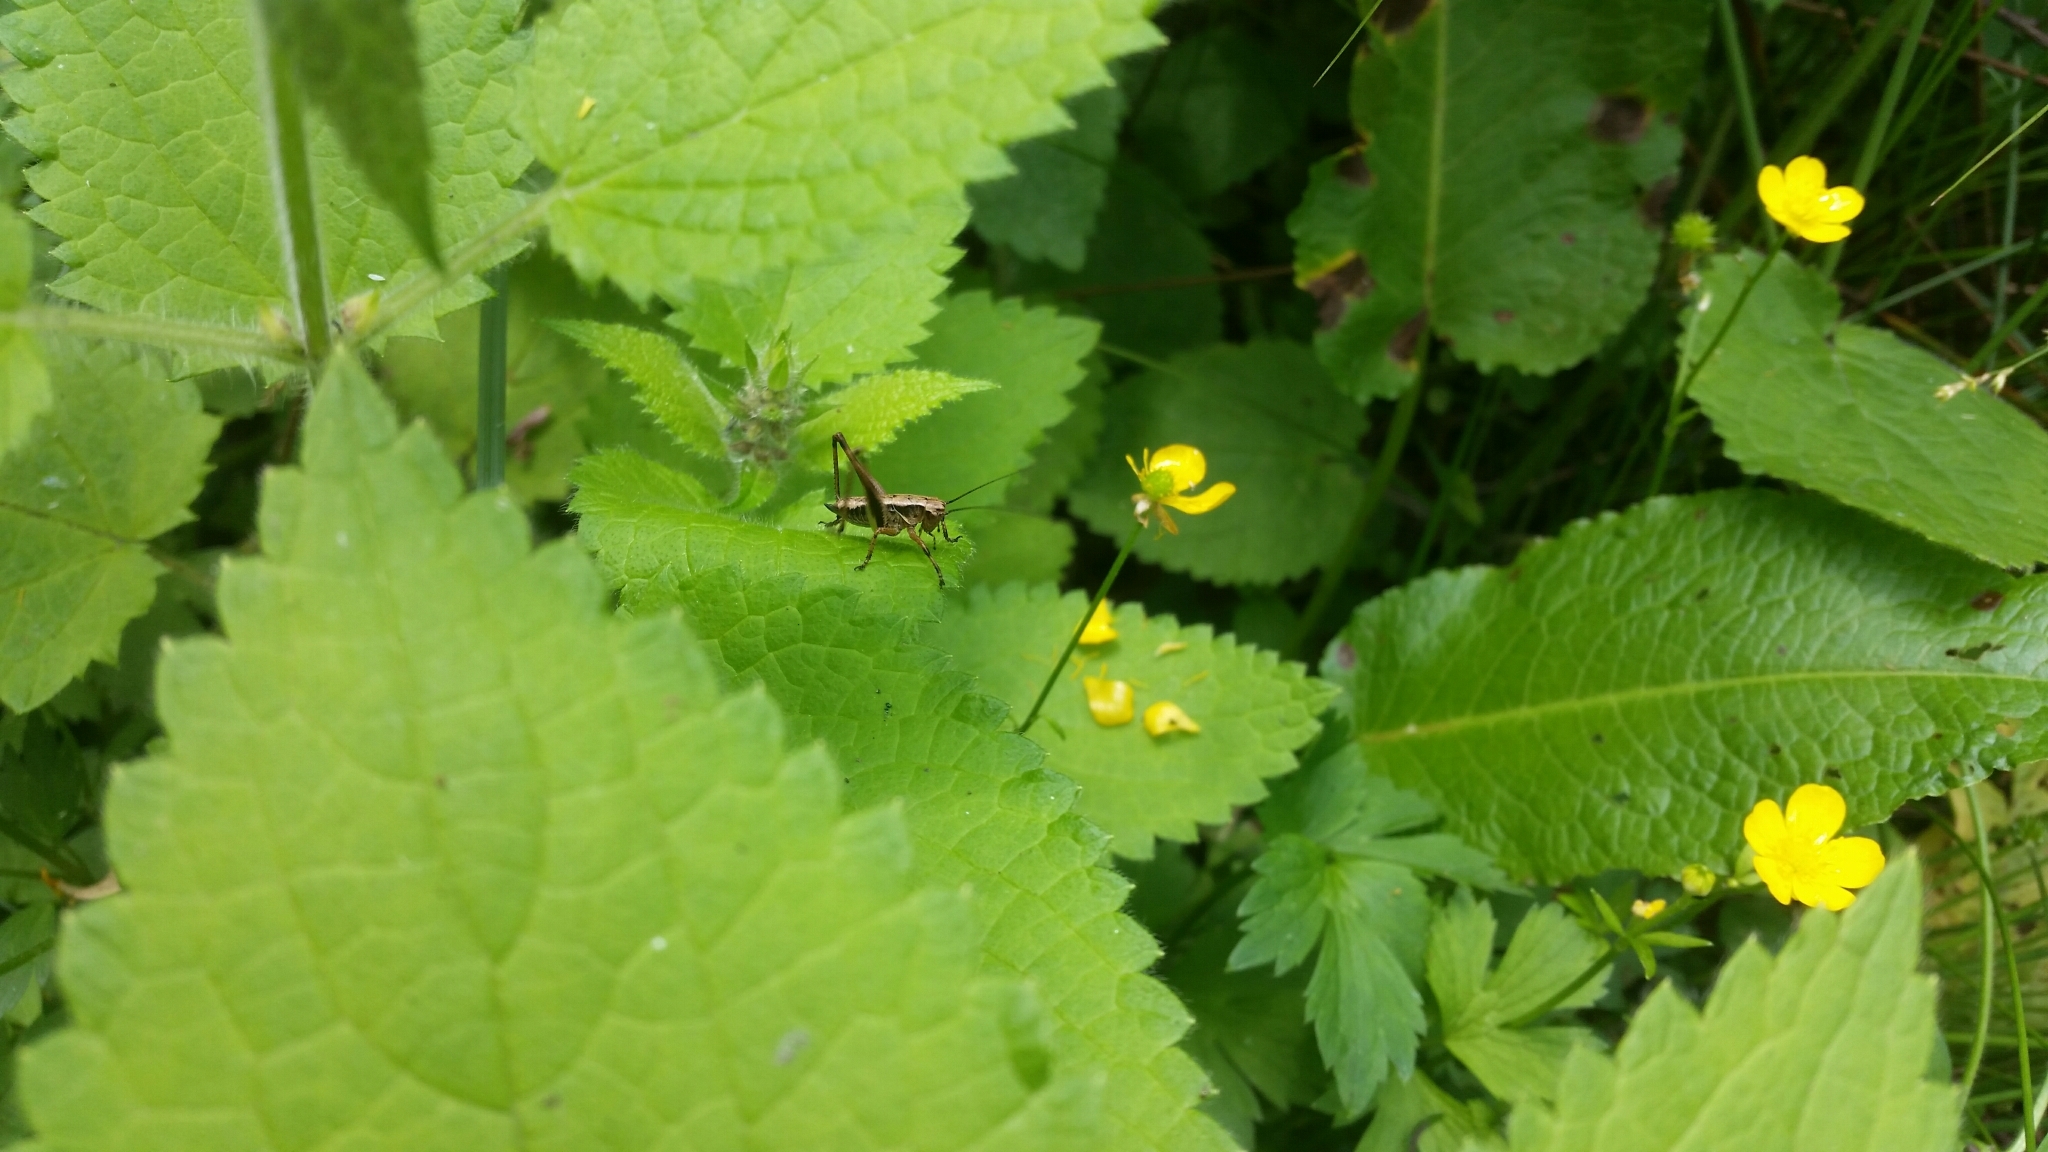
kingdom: Animalia
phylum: Arthropoda
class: Insecta
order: Orthoptera
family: Tettigoniidae
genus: Pholidoptera
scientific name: Pholidoptera griseoaptera
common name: Dark bush-cricket
